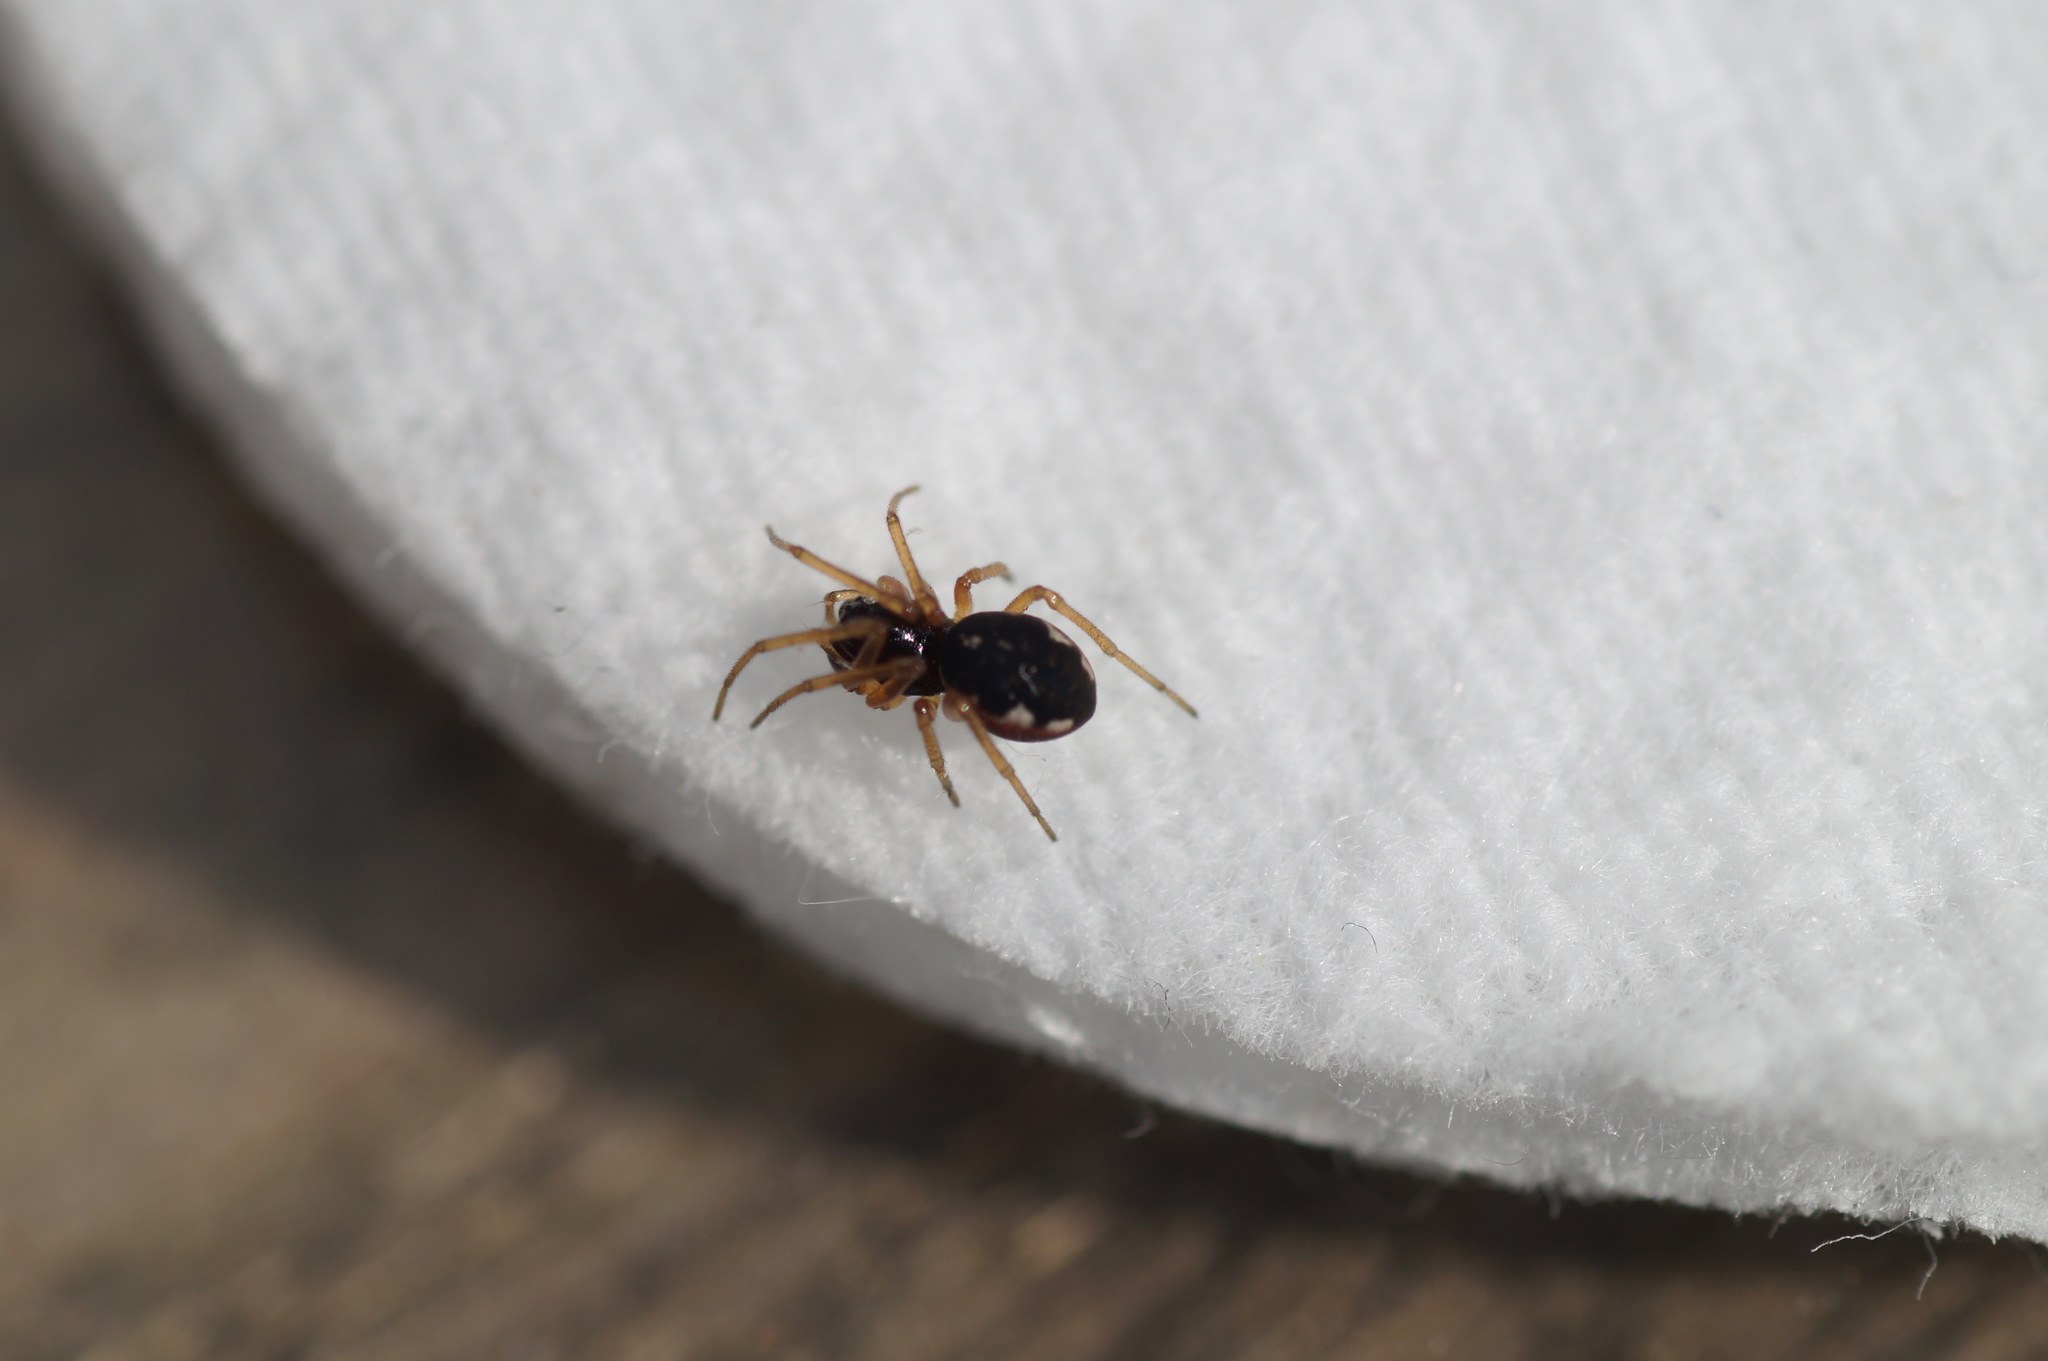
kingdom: Animalia
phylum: Arthropoda
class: Arachnida
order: Araneae
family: Tetragnathidae
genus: Pachygnatha
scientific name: Pachygnatha degeeri
